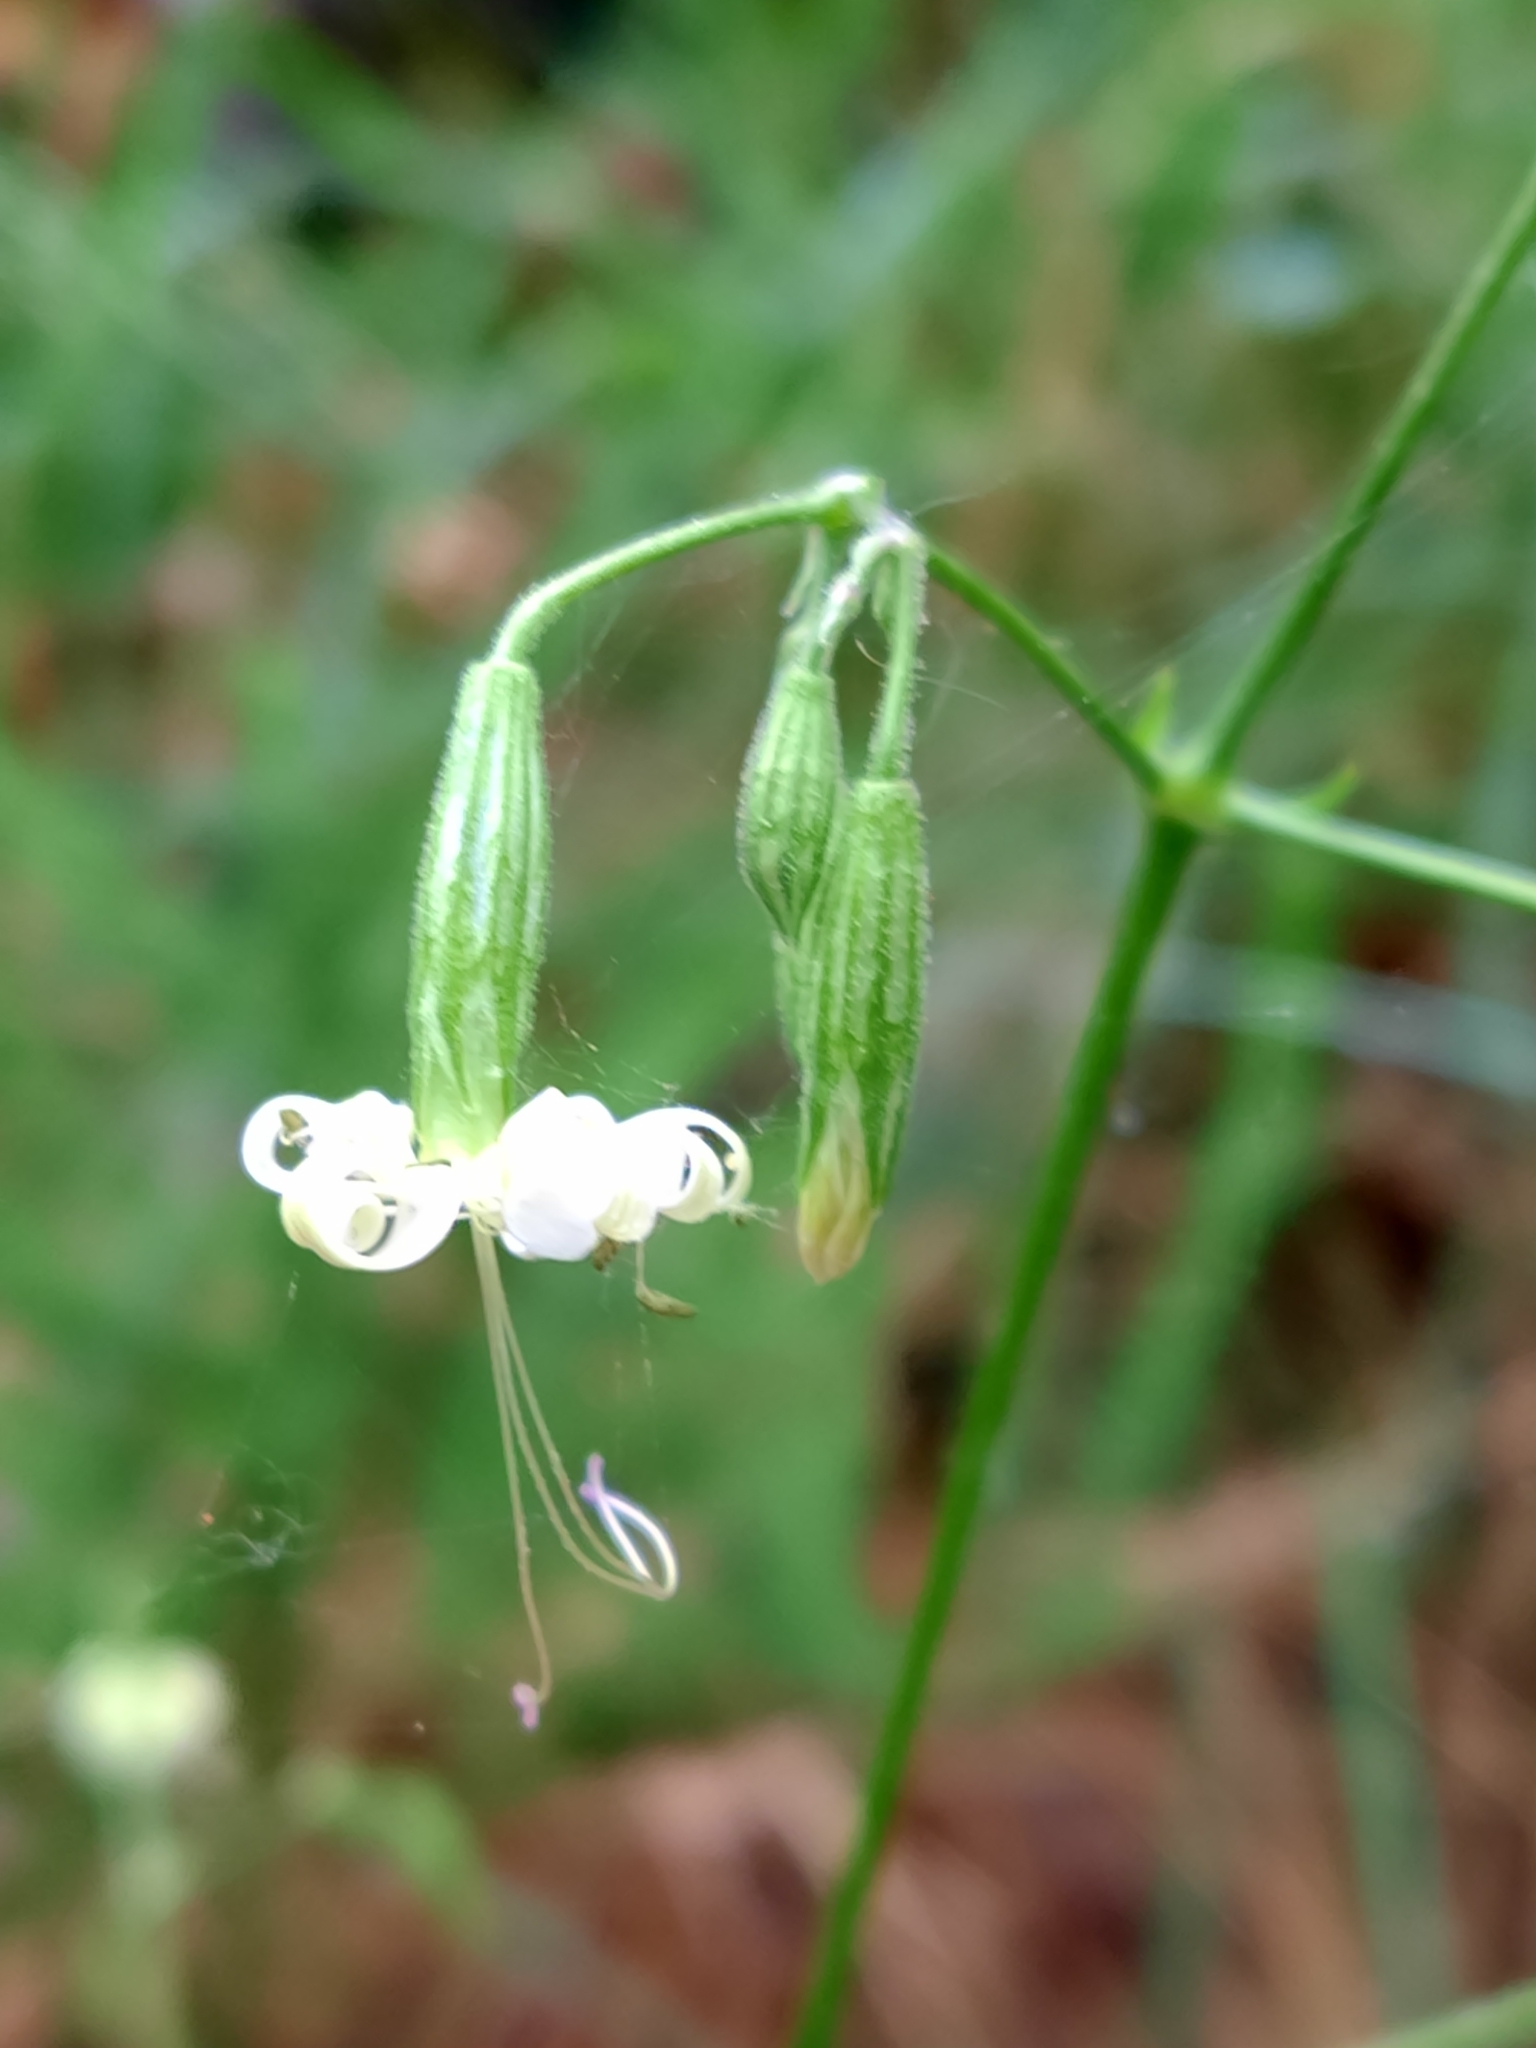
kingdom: Plantae
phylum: Tracheophyta
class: Magnoliopsida
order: Caryophyllales
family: Caryophyllaceae
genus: Silene
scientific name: Silene nutans
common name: Nottingham catchfly
